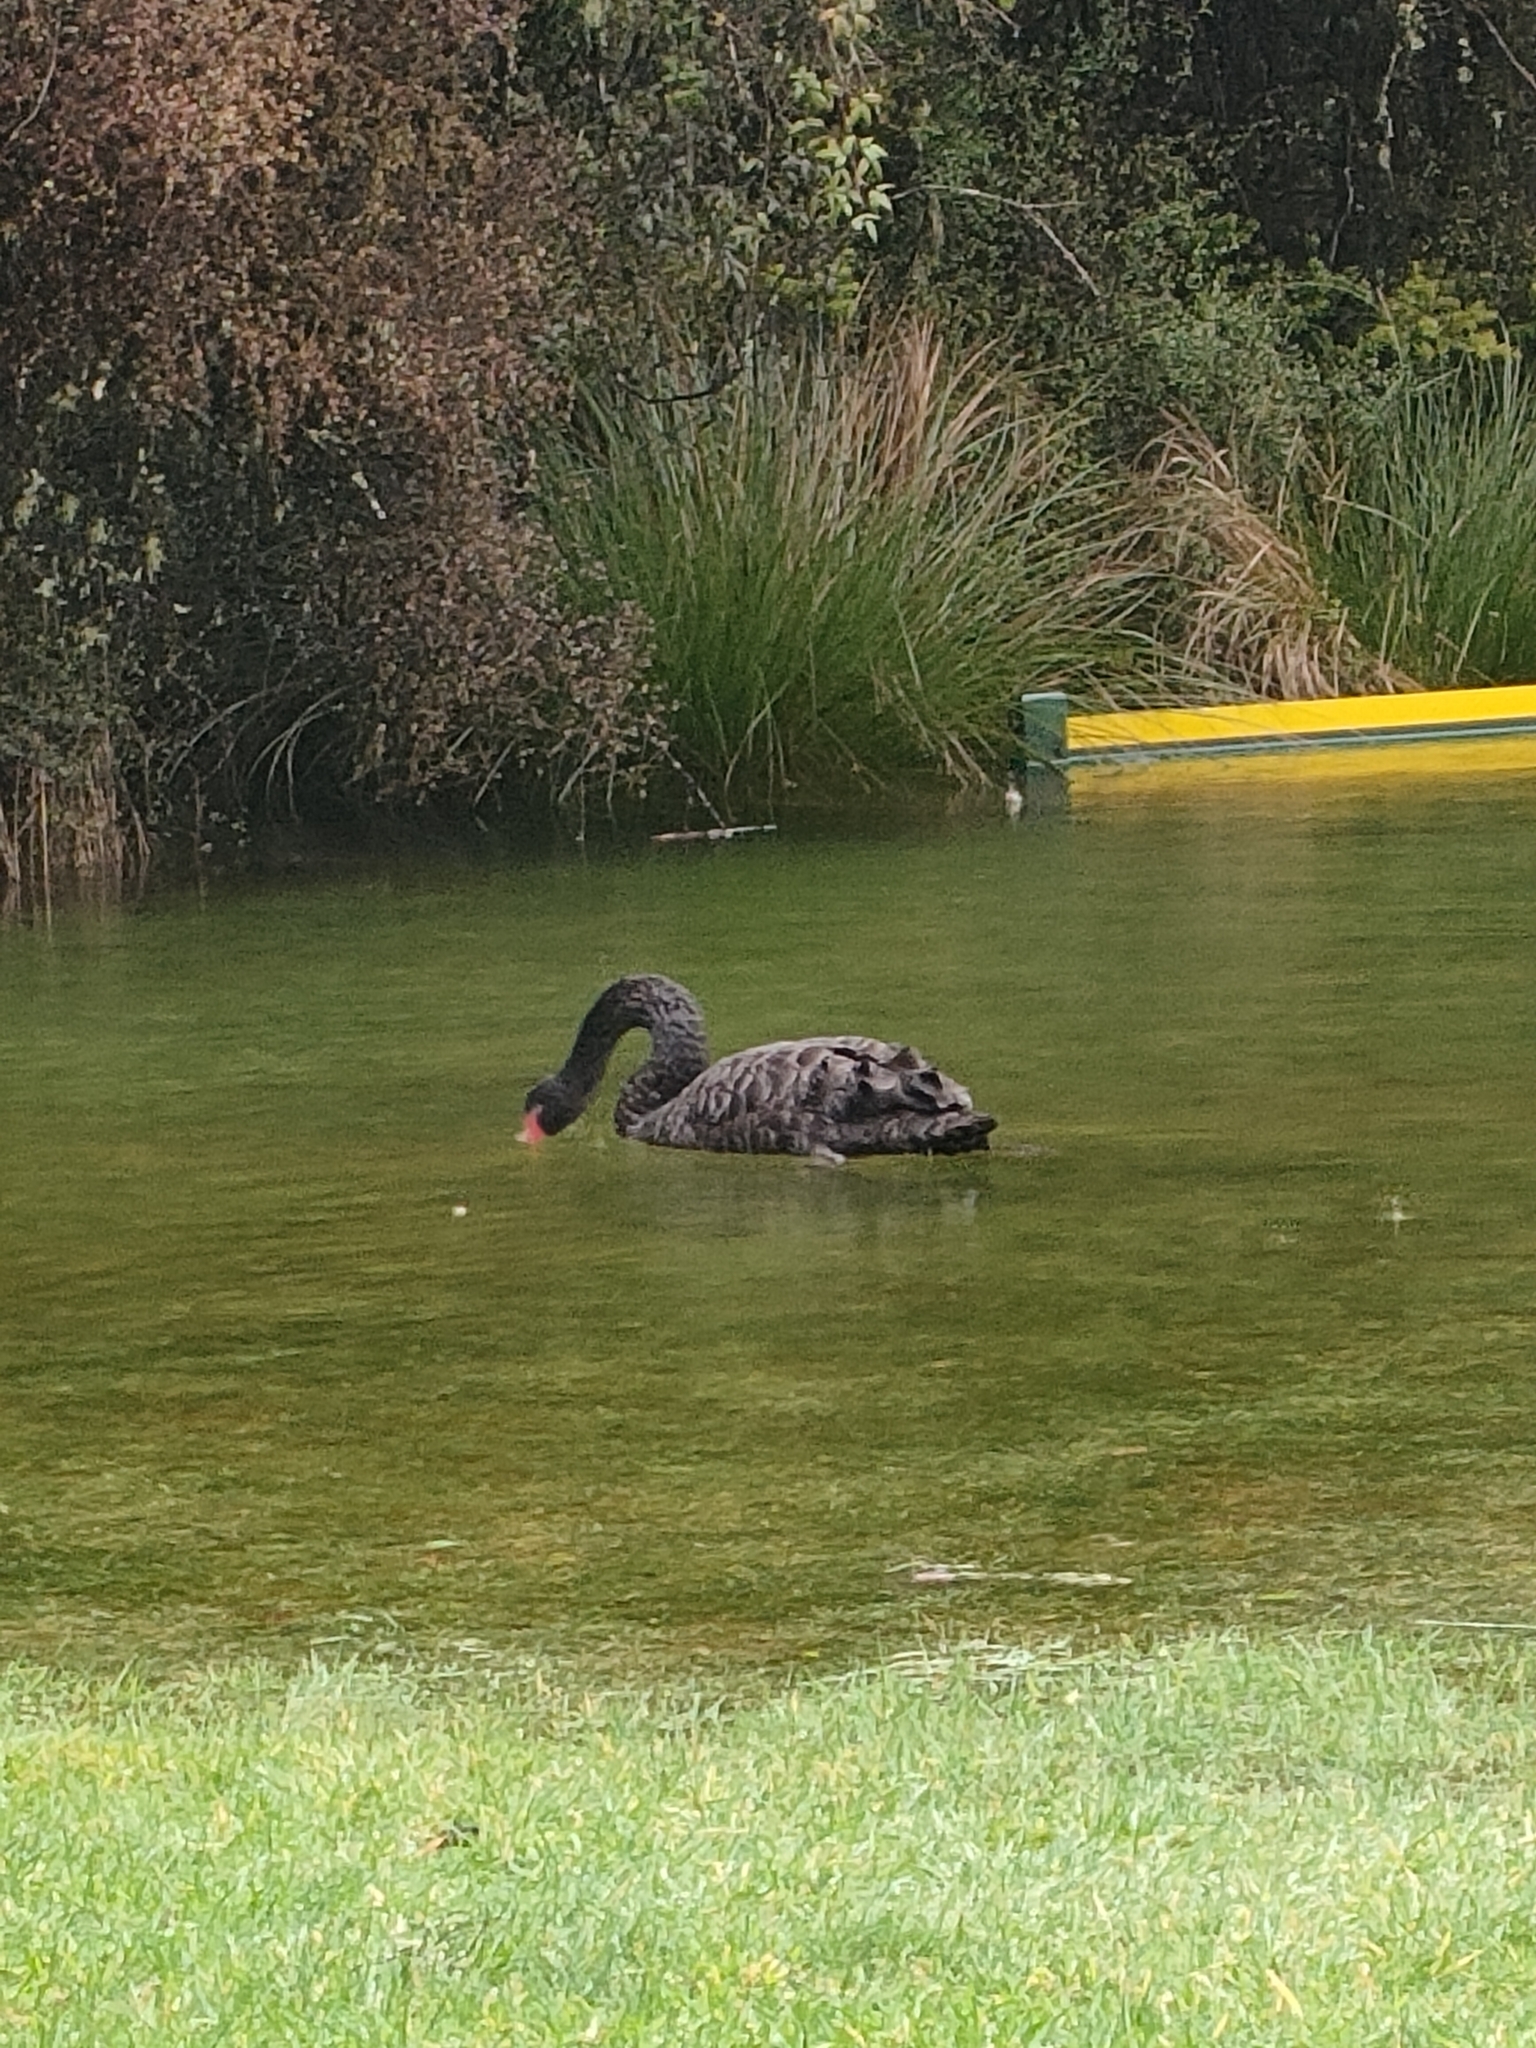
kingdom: Animalia
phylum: Chordata
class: Aves
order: Anseriformes
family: Anatidae
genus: Cygnus
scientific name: Cygnus atratus
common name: Black swan
